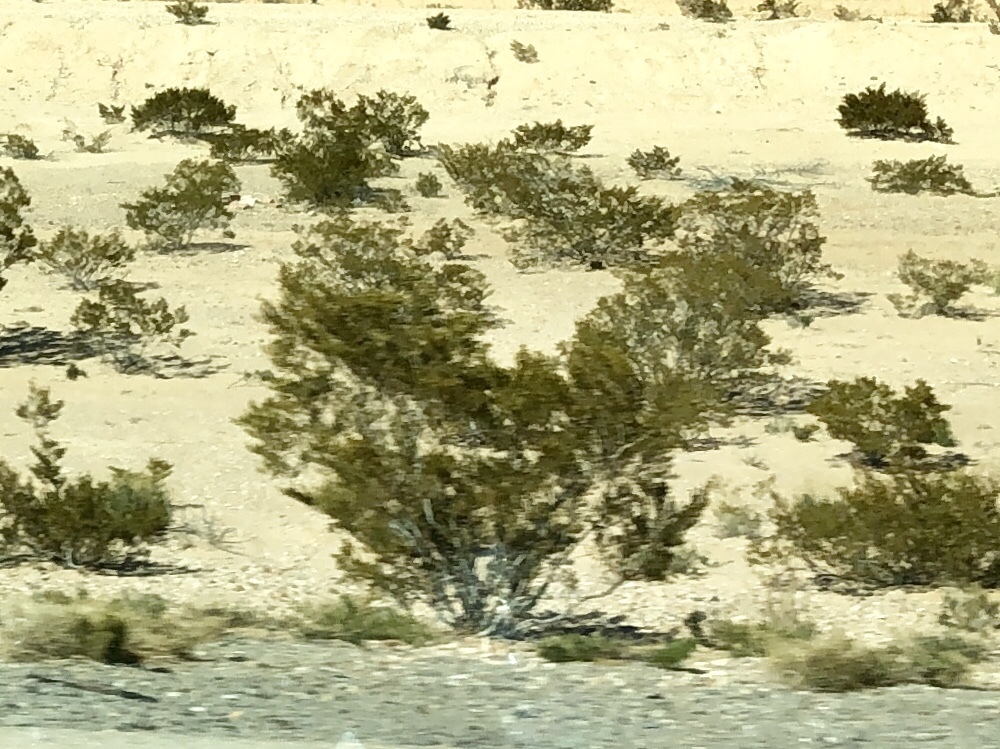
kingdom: Plantae
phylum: Tracheophyta
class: Magnoliopsida
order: Zygophyllales
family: Zygophyllaceae
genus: Larrea
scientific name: Larrea tridentata
